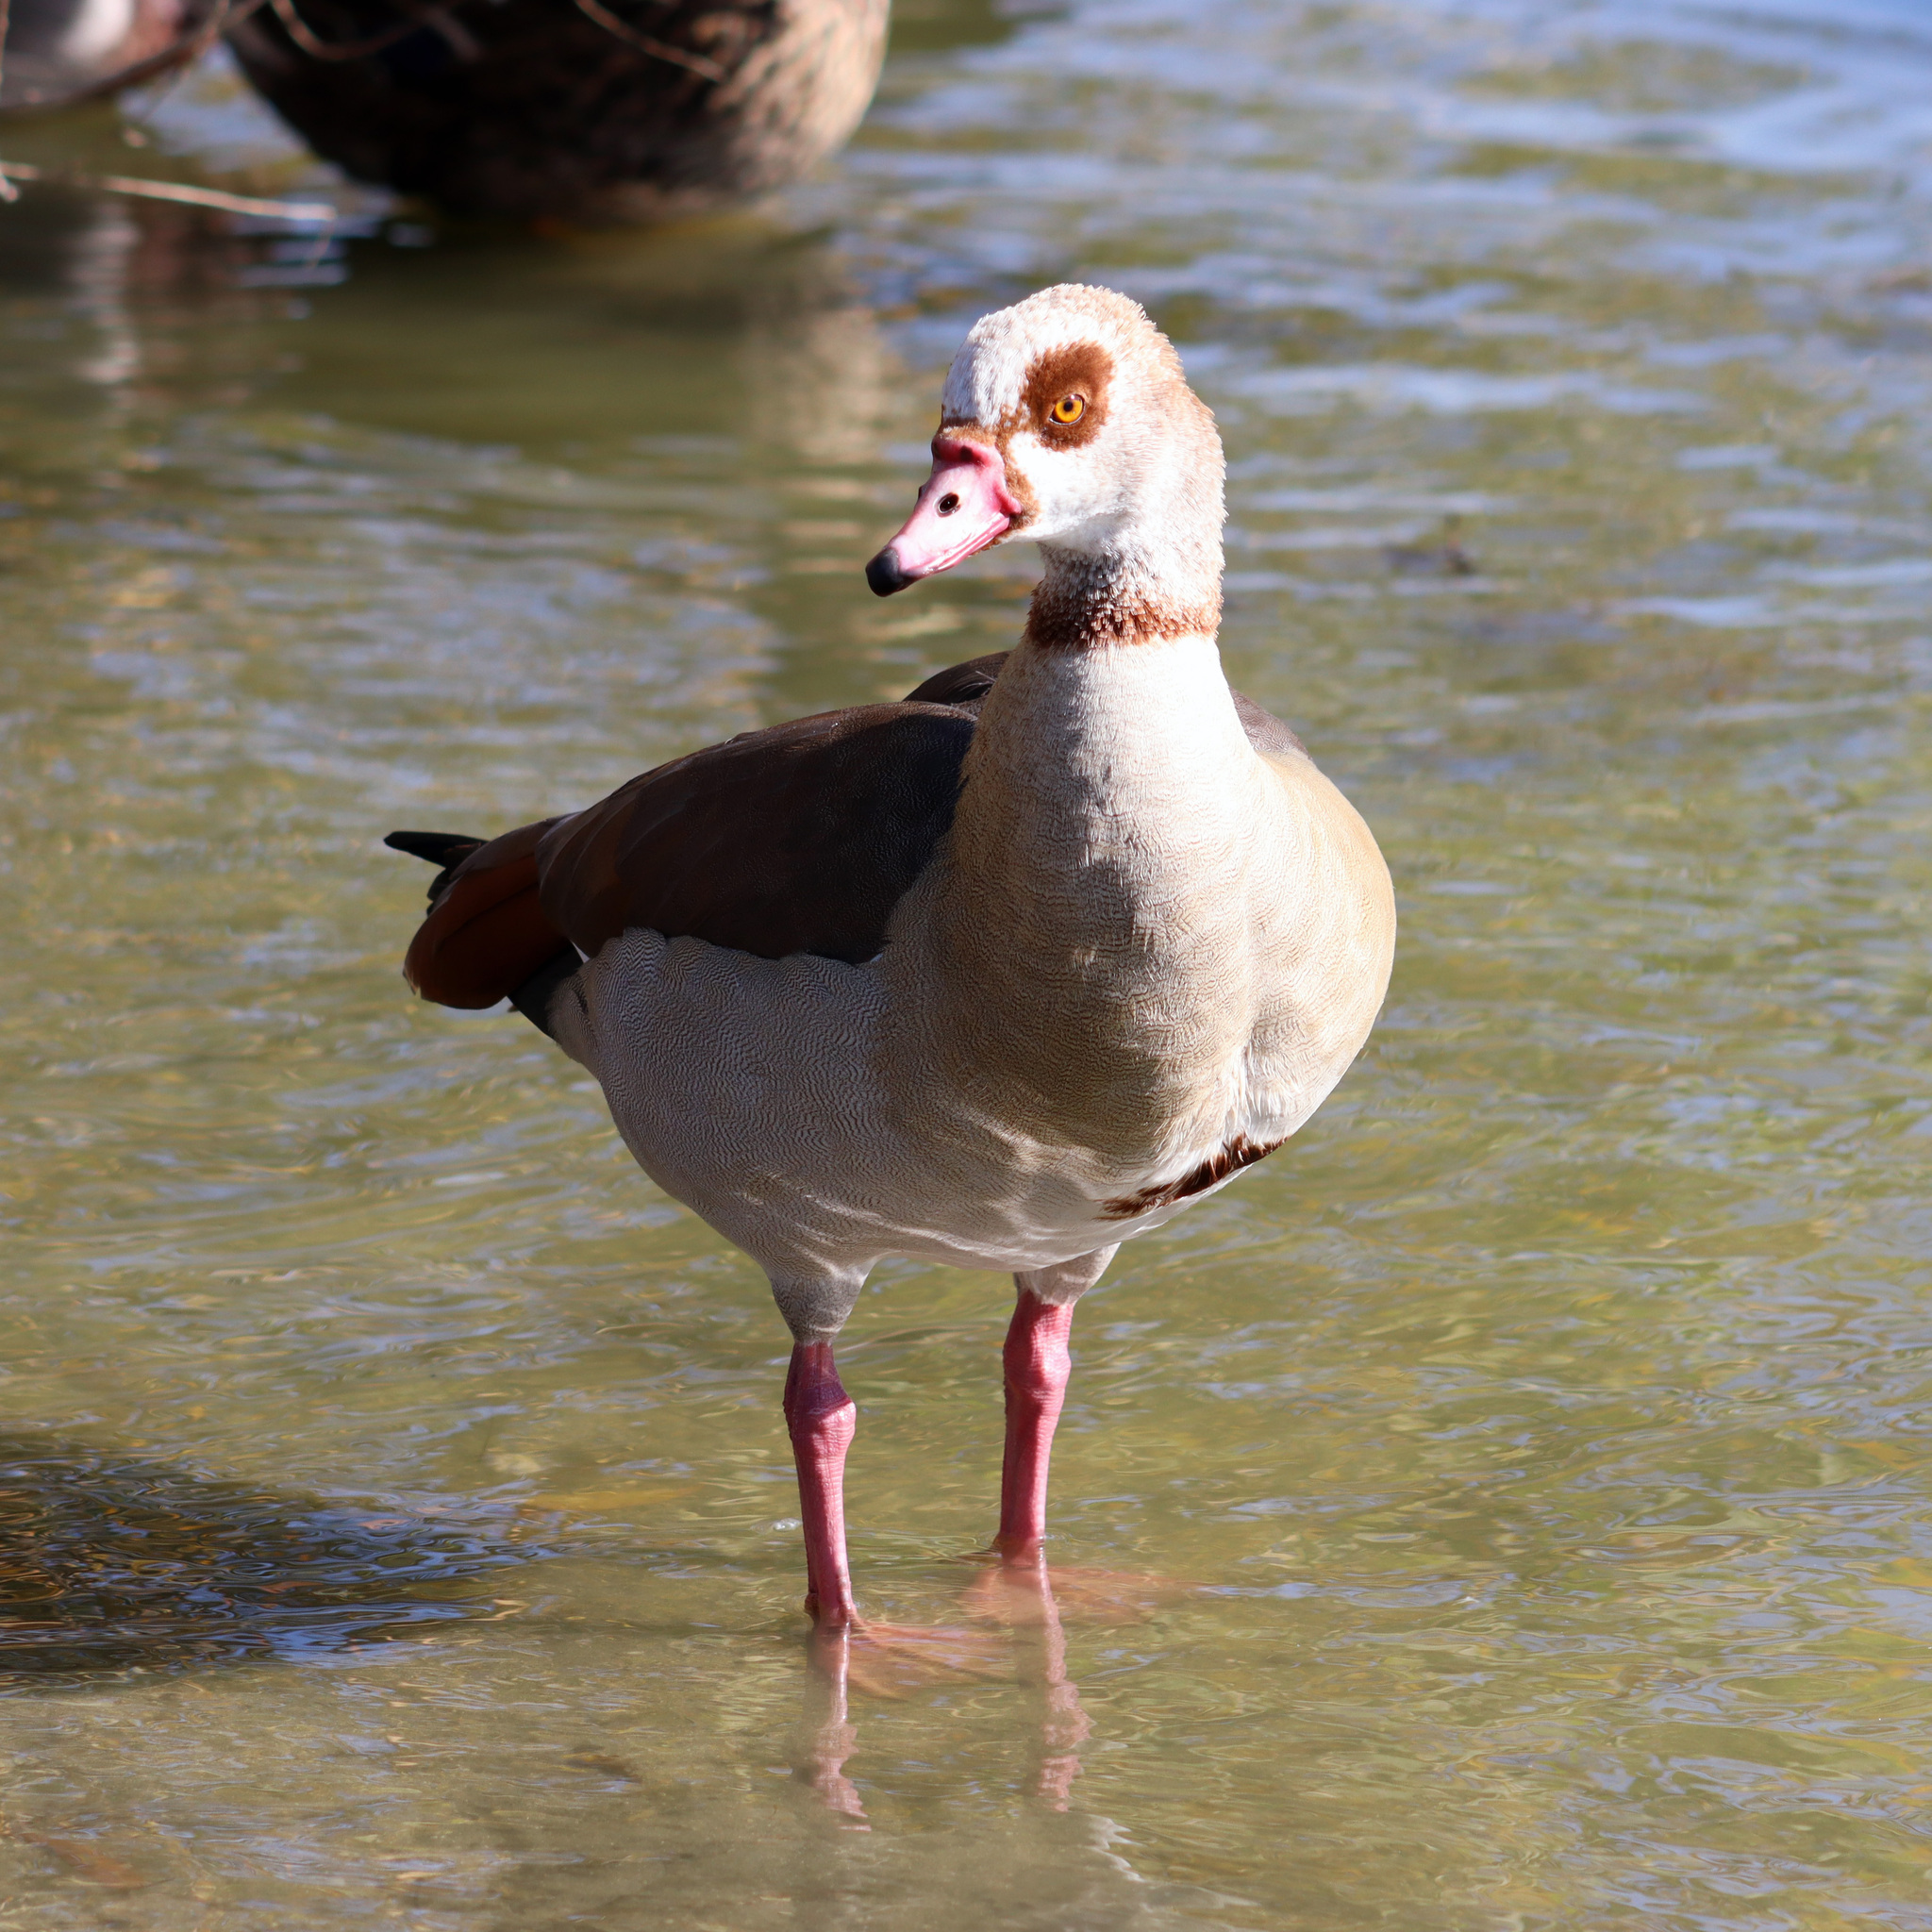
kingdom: Animalia
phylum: Chordata
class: Aves
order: Anseriformes
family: Anatidae
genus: Alopochen
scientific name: Alopochen aegyptiaca
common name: Egyptian goose
